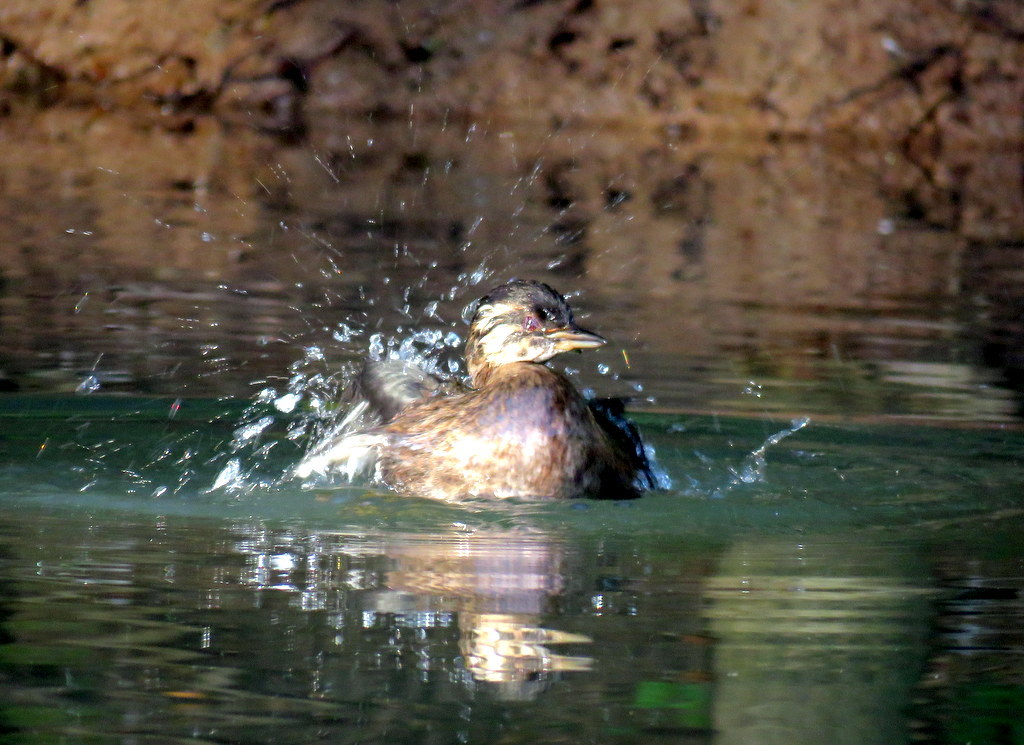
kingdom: Animalia
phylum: Chordata
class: Aves
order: Podicipediformes
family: Podicipedidae
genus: Rollandia
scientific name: Rollandia rolland
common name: White-tufted grebe
